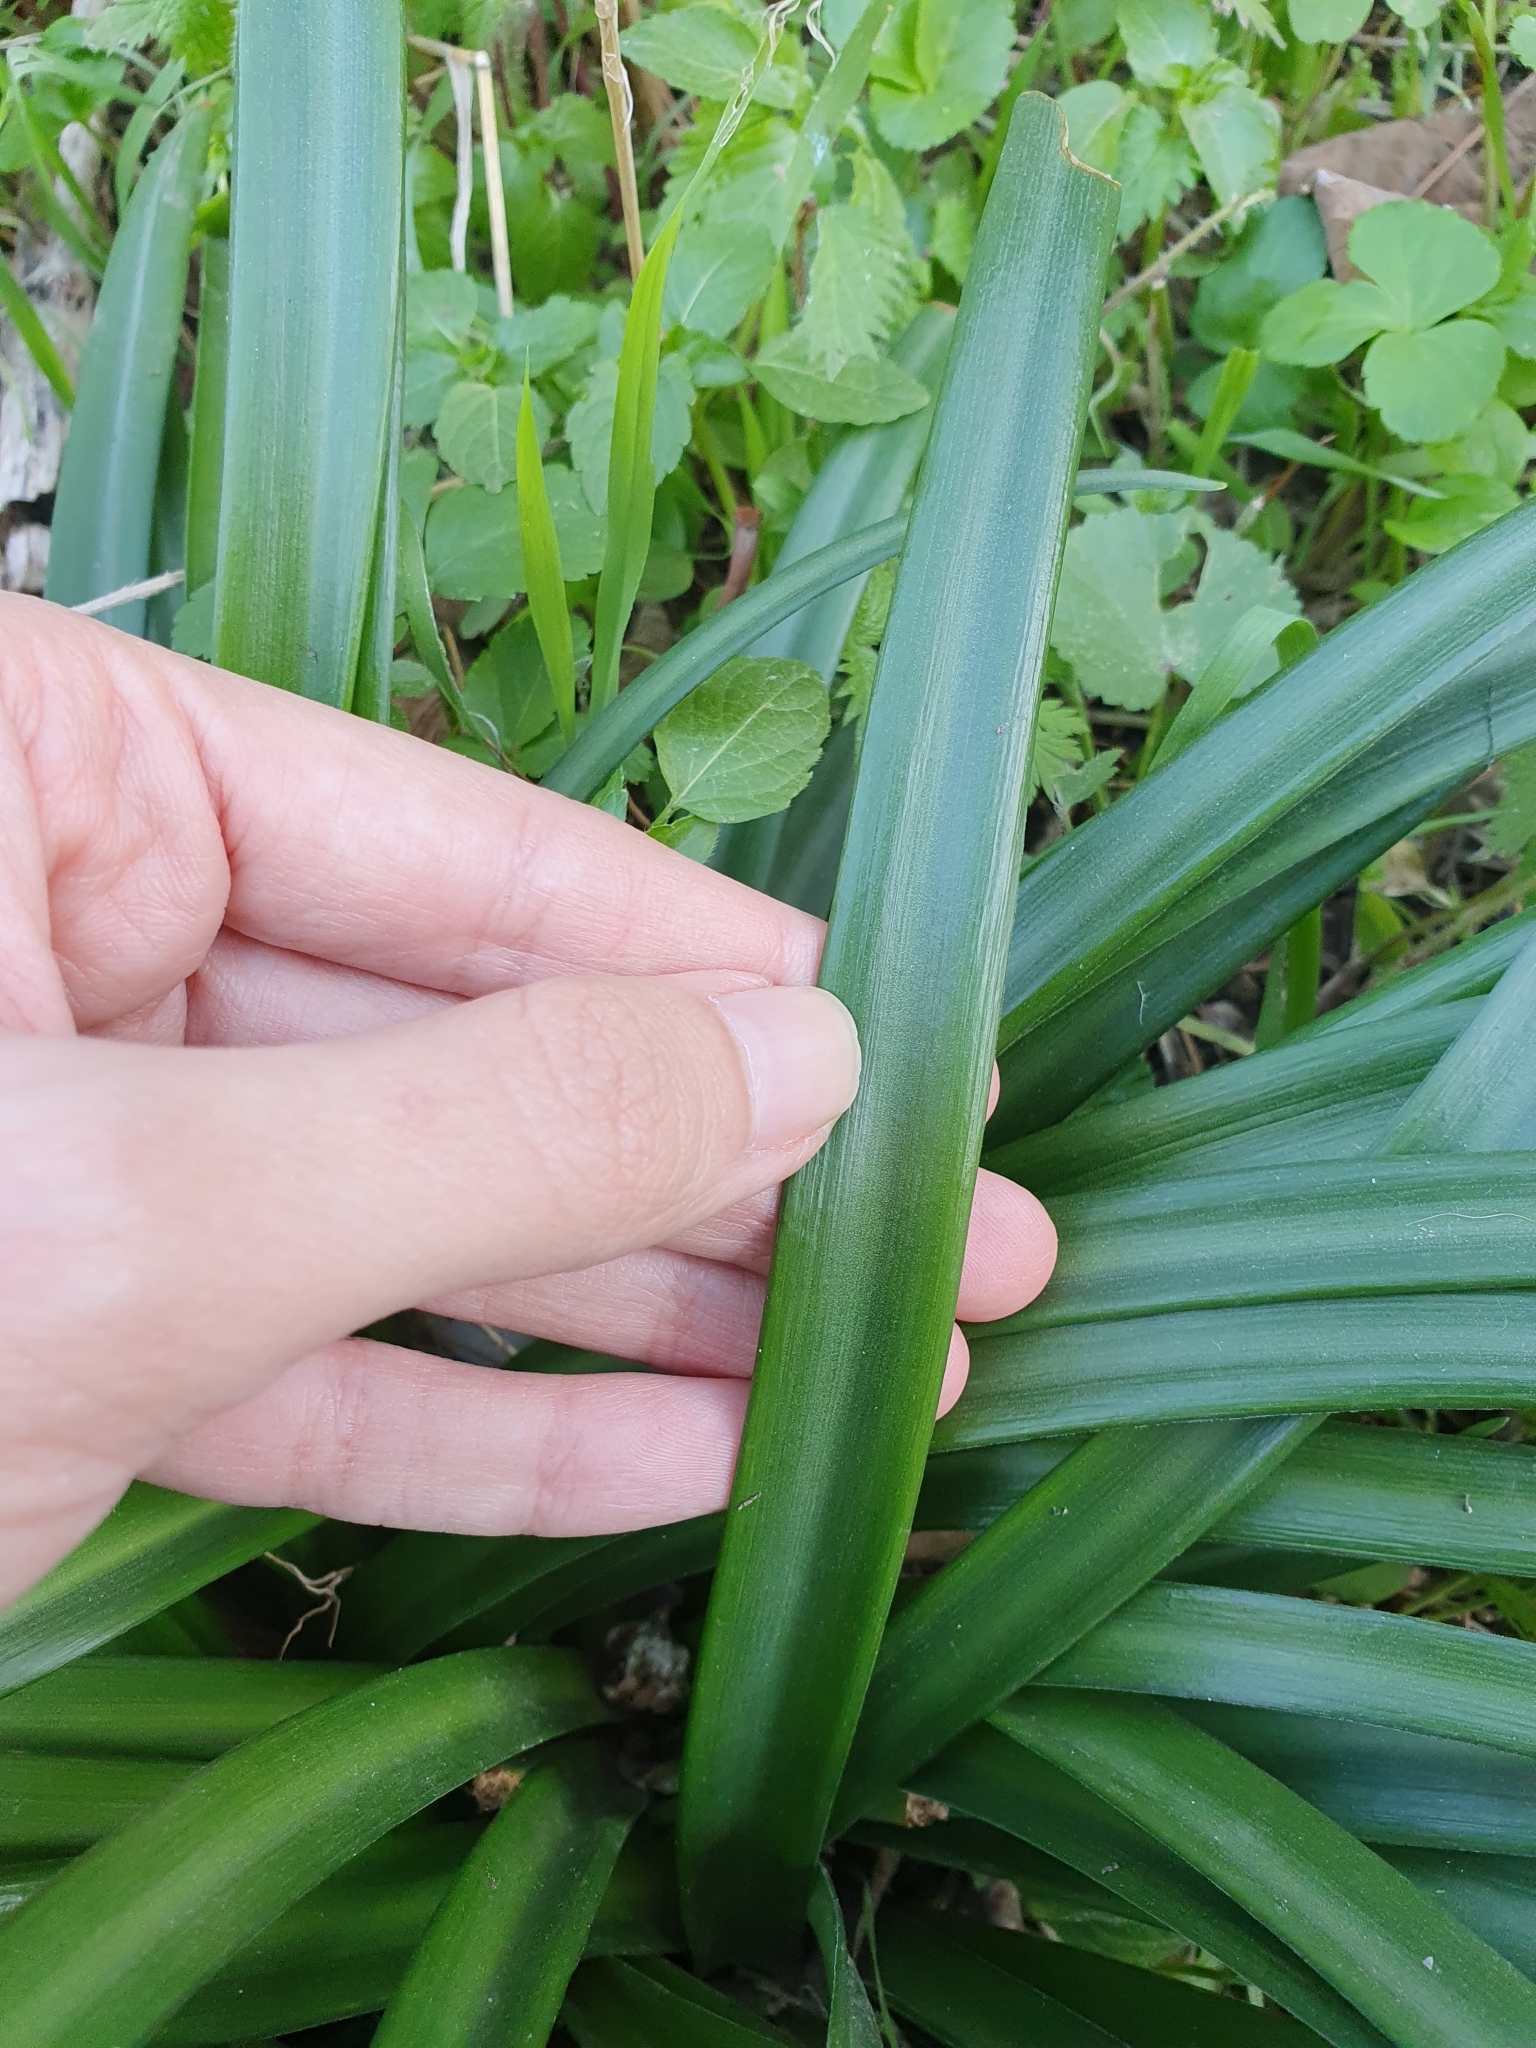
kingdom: Plantae
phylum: Tracheophyta
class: Liliopsida
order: Asparagales
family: Amaryllidaceae
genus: Sternbergia
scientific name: Sternbergia lutea
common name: Winter daffodil
